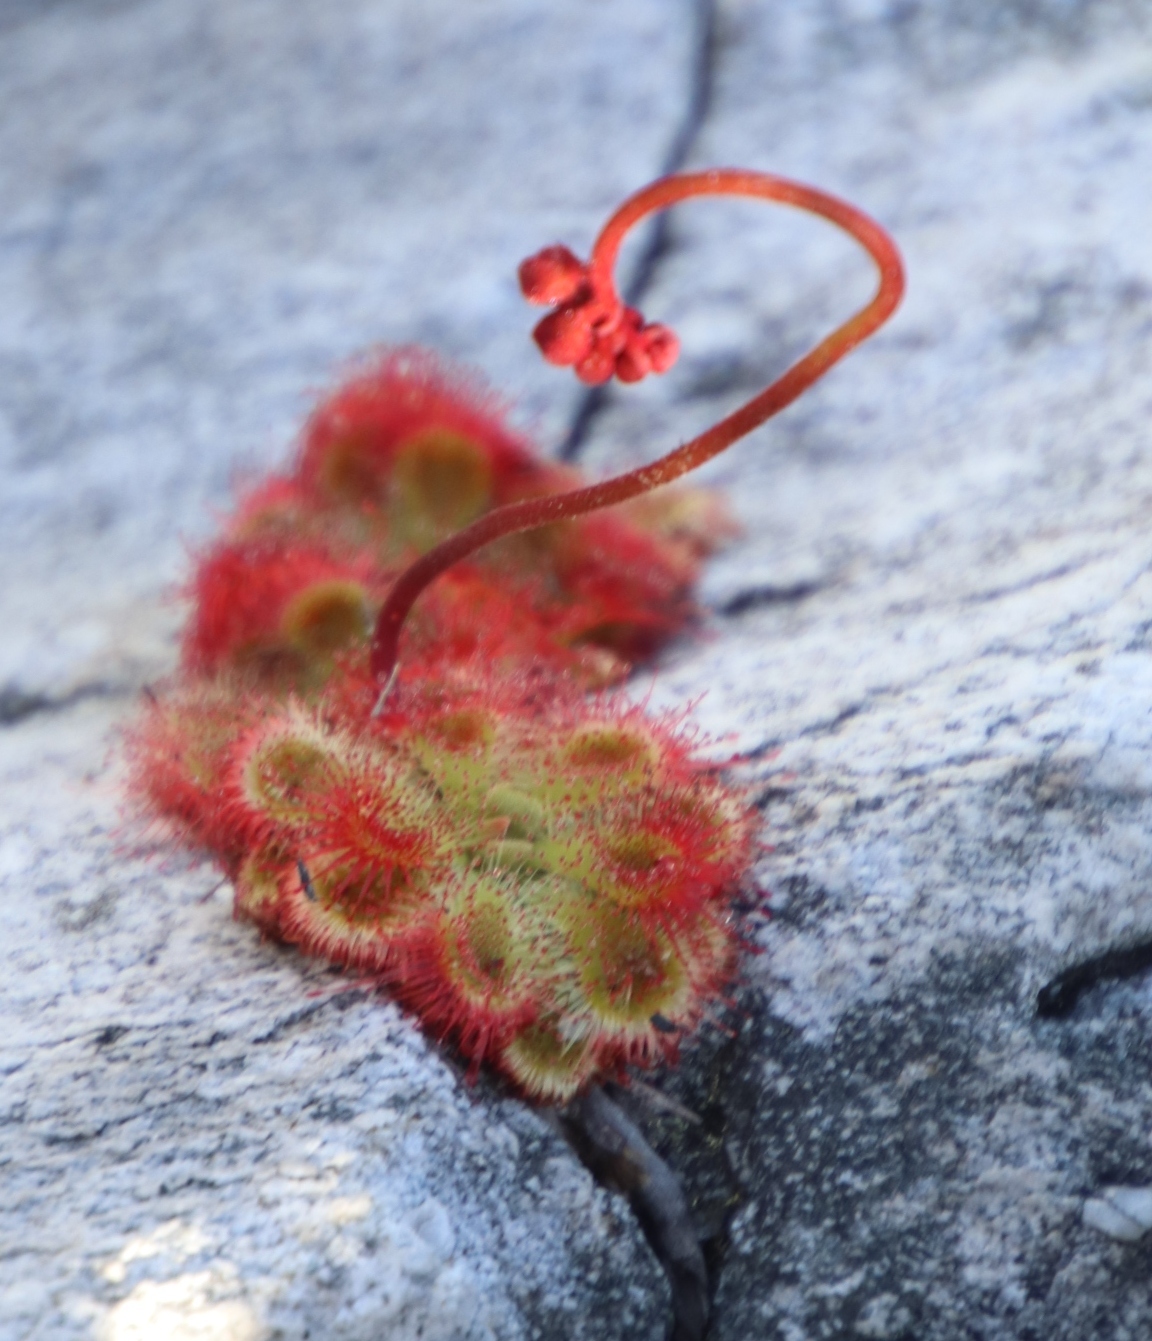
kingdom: Plantae
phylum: Tracheophyta
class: Magnoliopsida
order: Caryophyllales
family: Droseraceae
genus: Drosera
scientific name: Drosera xerophila
